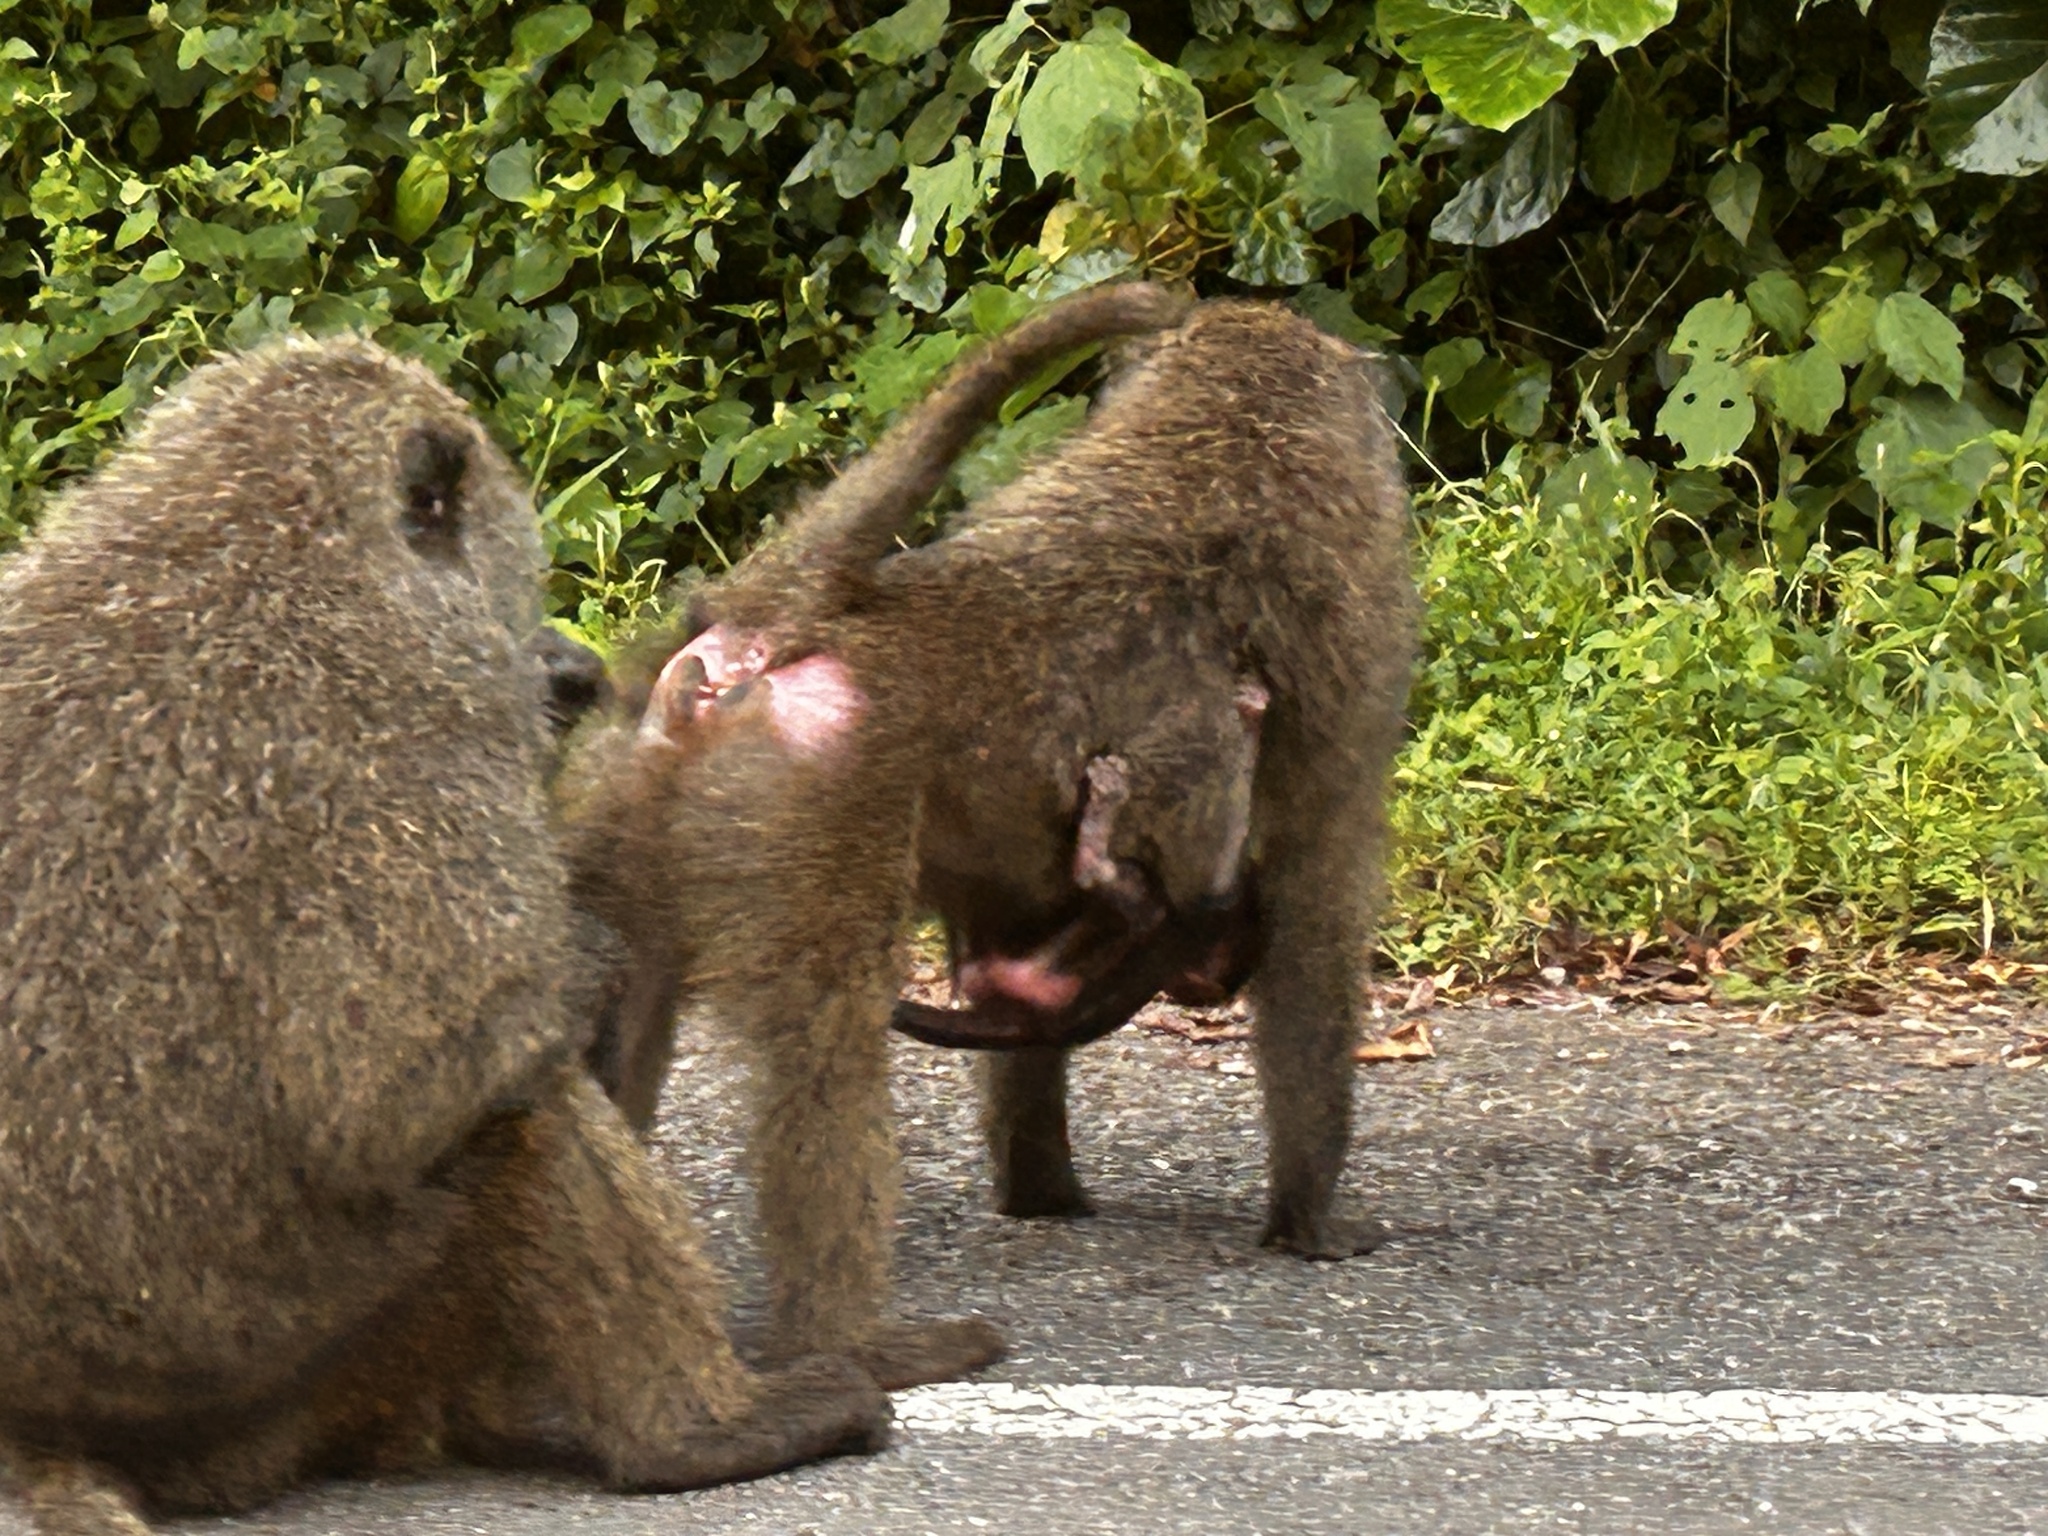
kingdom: Animalia
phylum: Chordata
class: Mammalia
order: Primates
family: Cercopithecidae
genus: Papio
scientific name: Papio anubis
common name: Olive baboon
